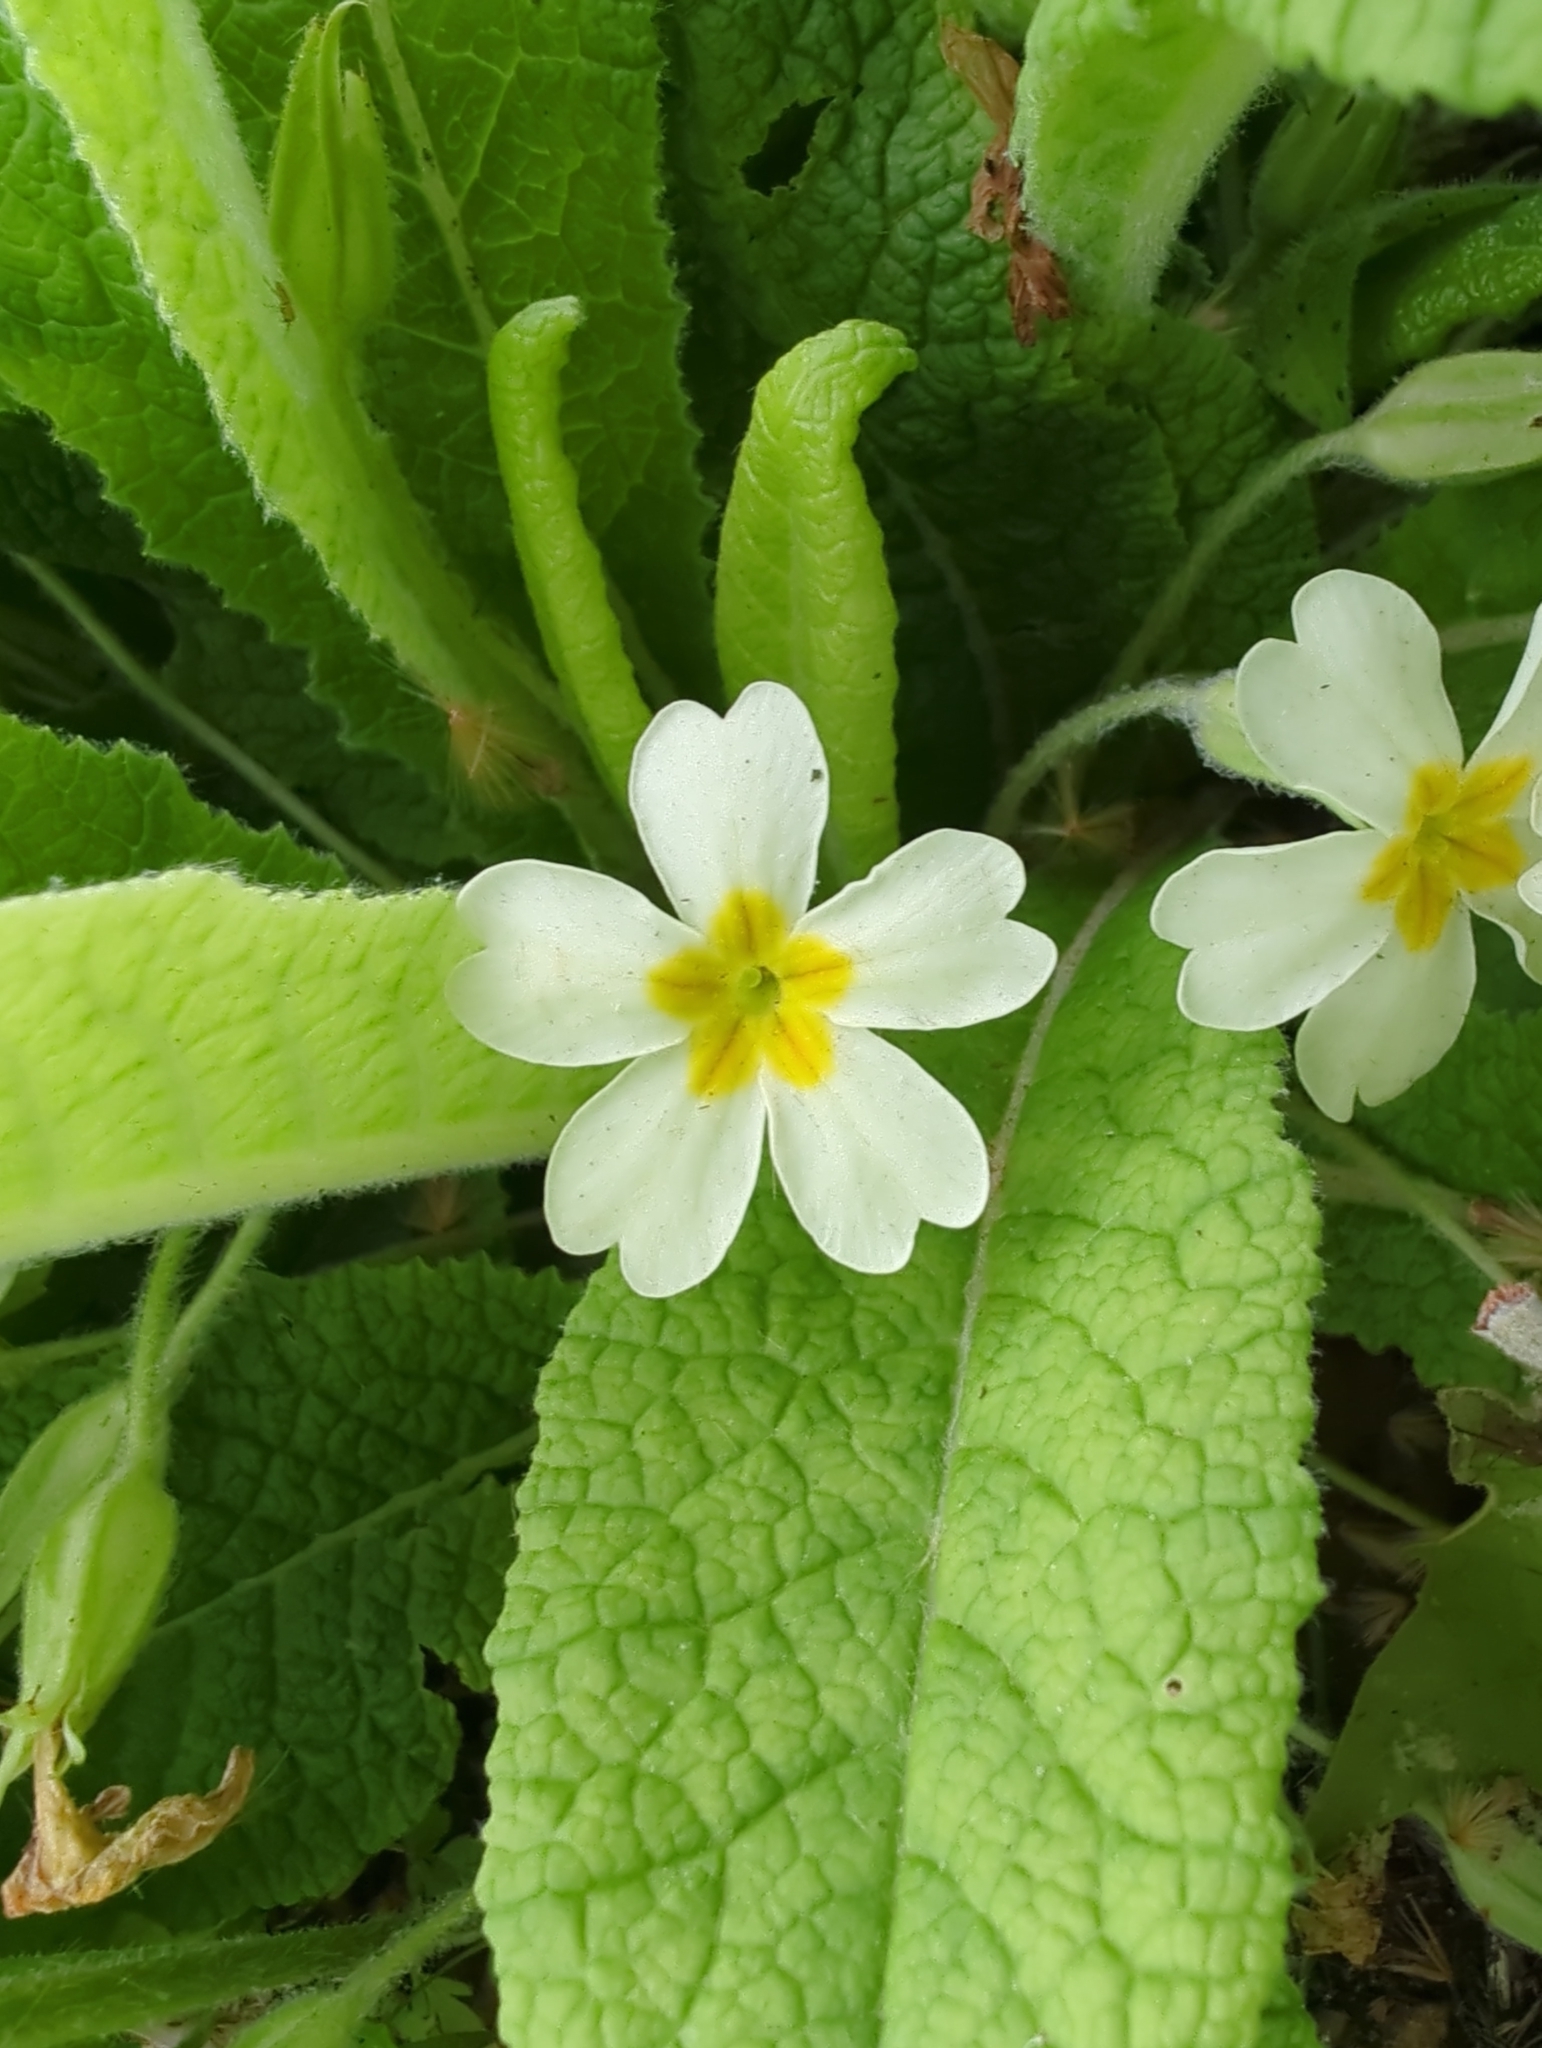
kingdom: Plantae
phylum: Tracheophyta
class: Magnoliopsida
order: Ericales
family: Primulaceae
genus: Primula
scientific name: Primula vulgaris
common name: Primrose
